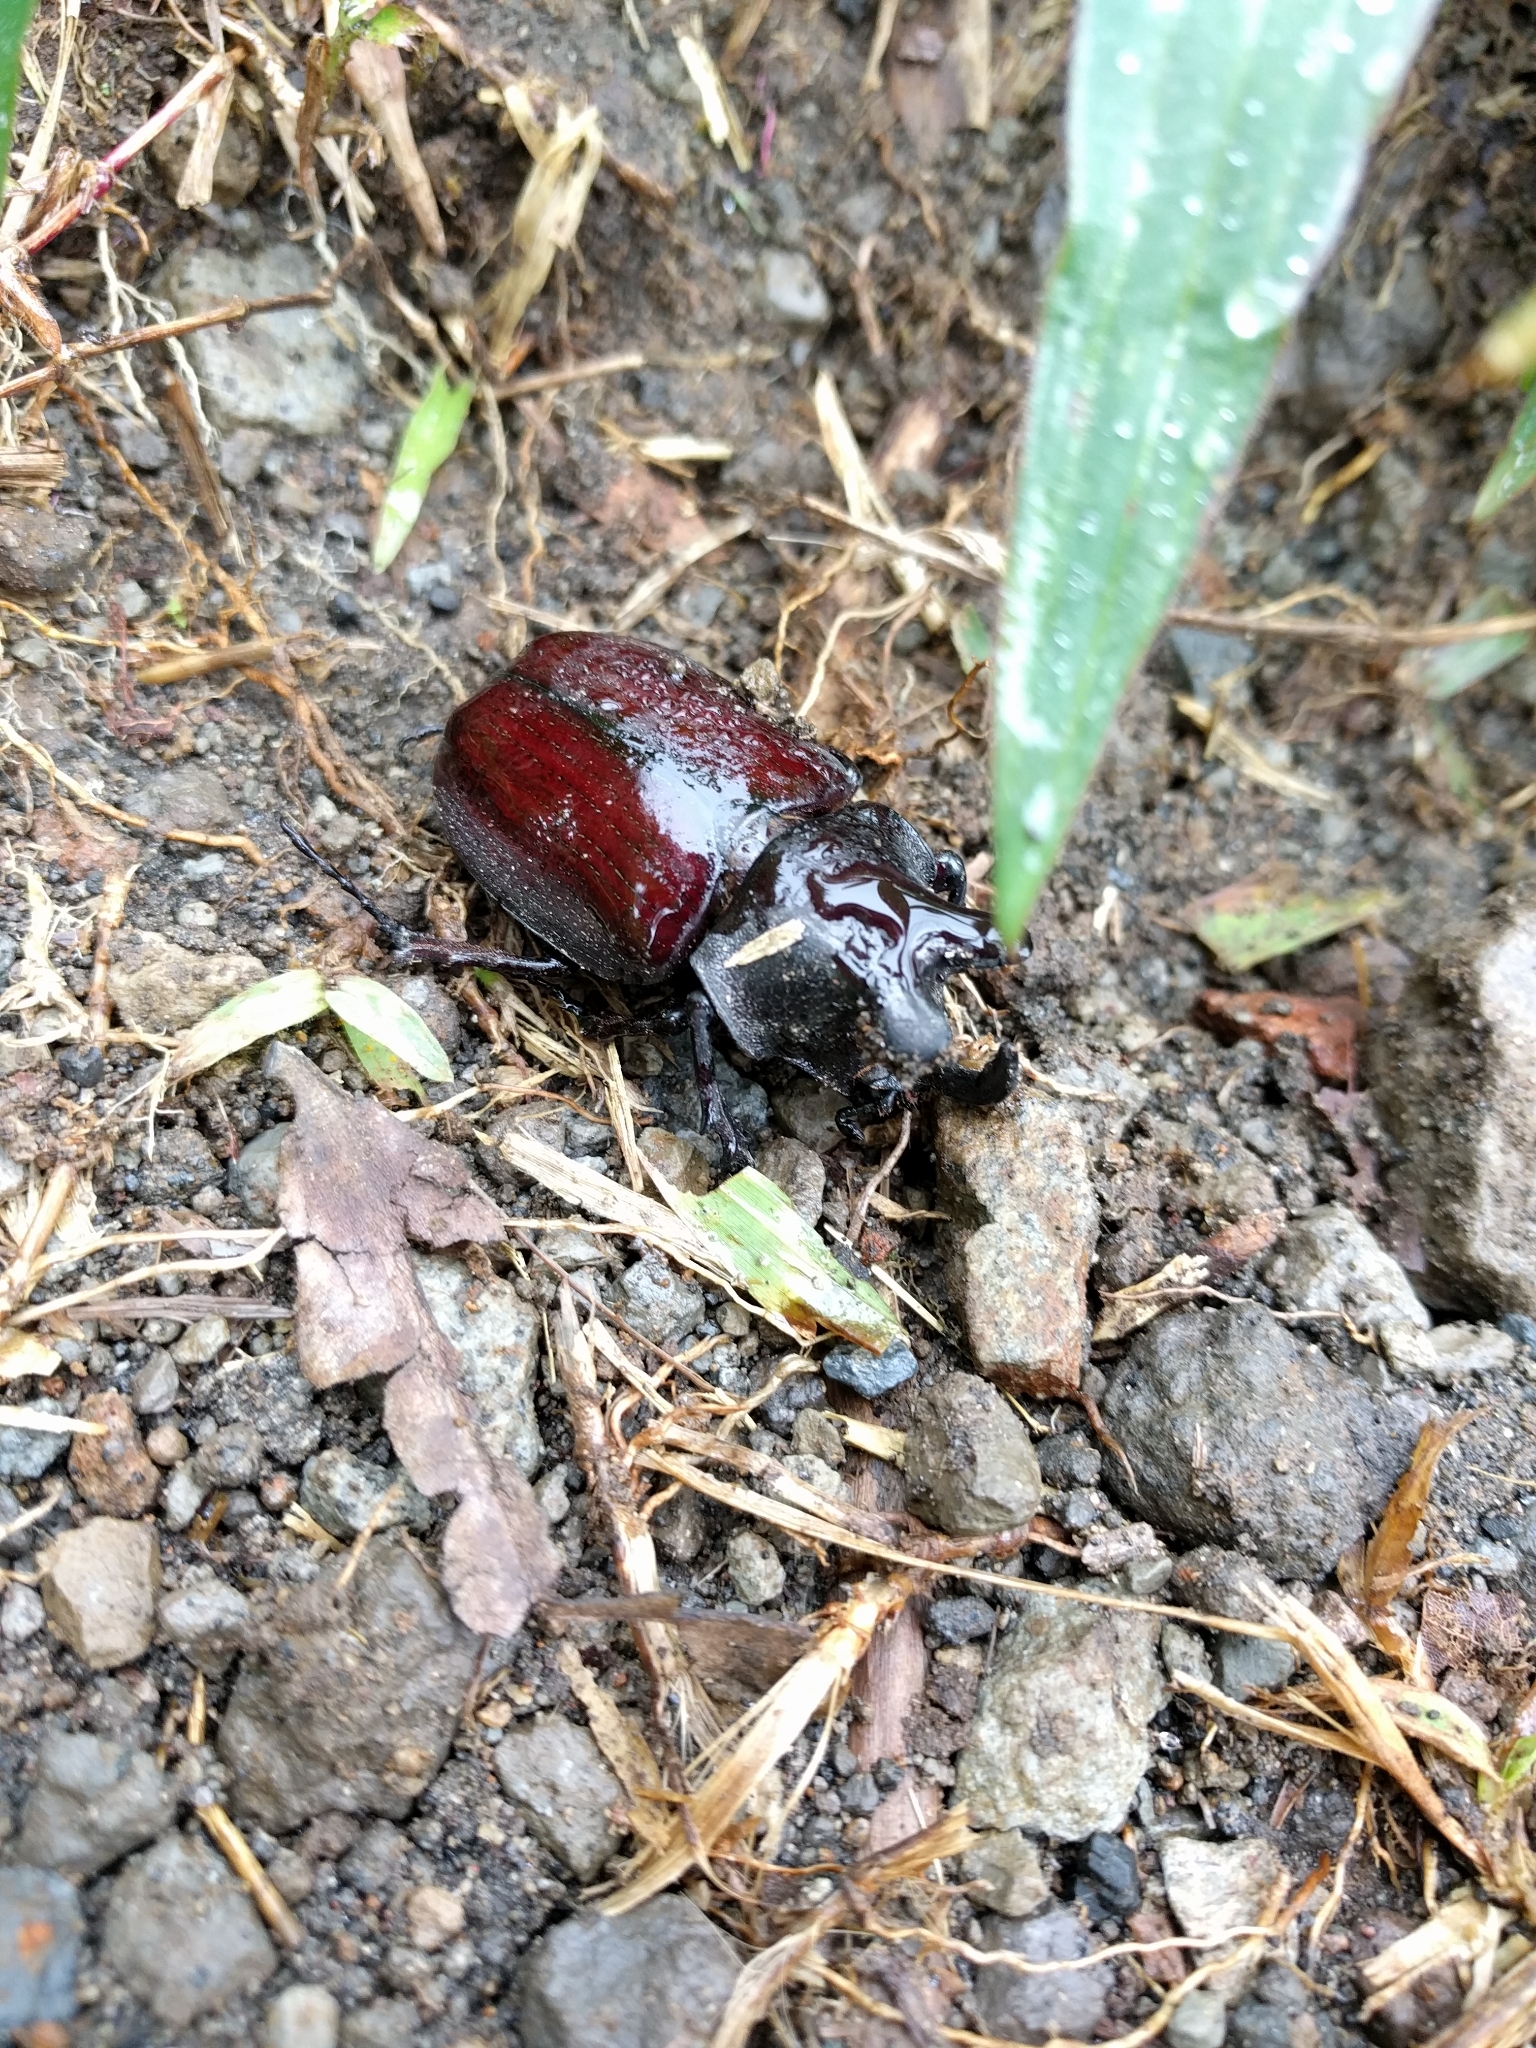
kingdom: Animalia
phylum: Arthropoda
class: Insecta
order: Coleoptera
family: Scarabaeidae
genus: Coelosis
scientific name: Coelosis biloba
